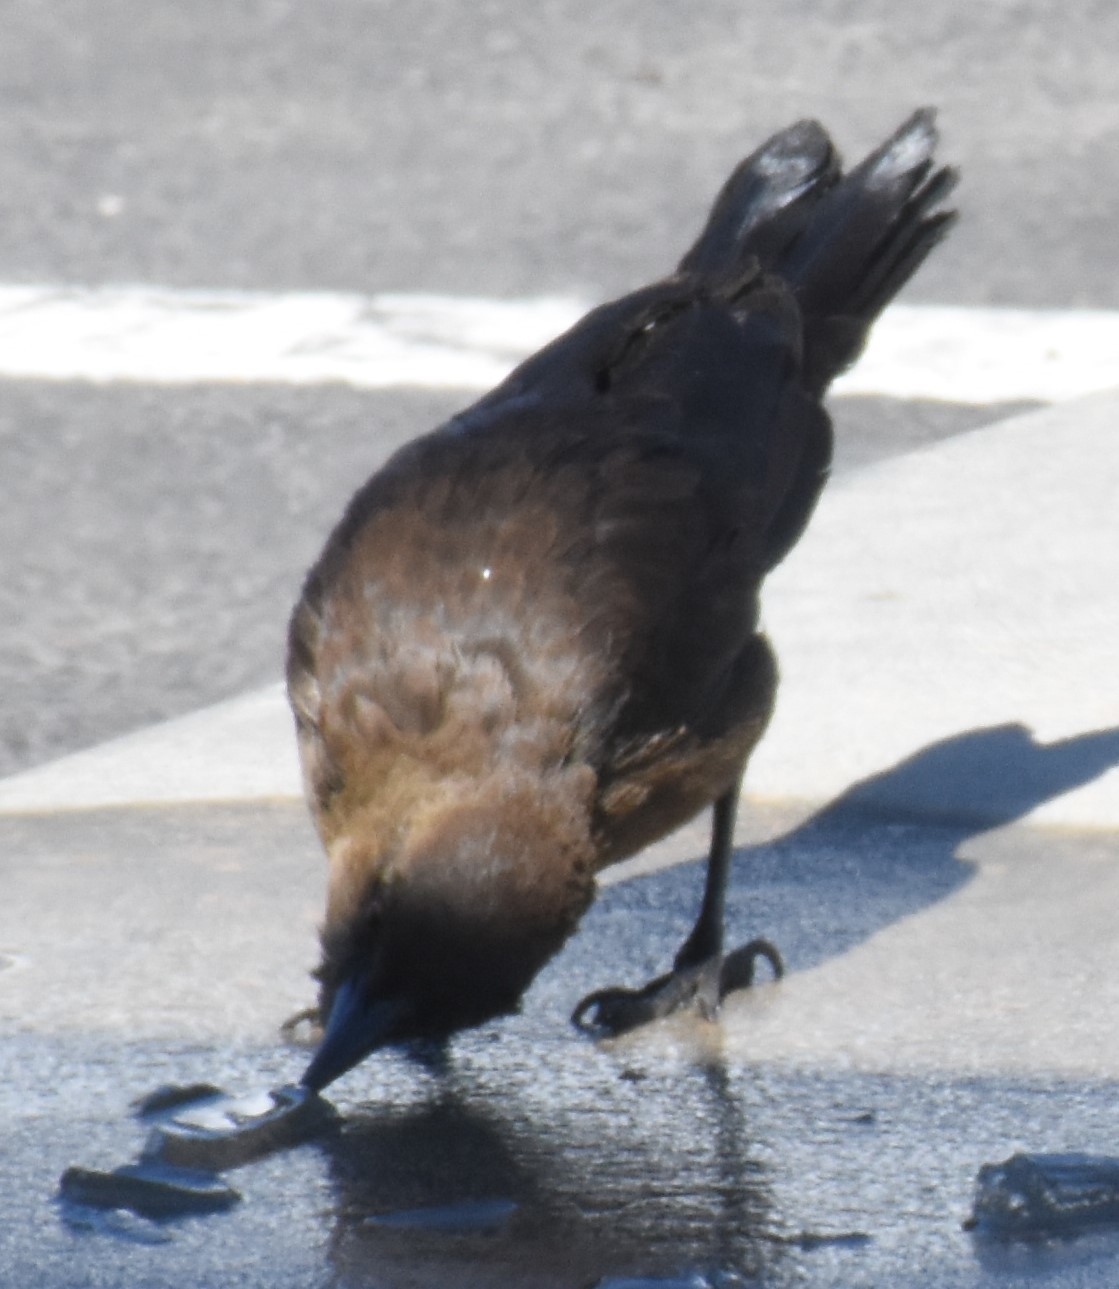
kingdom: Animalia
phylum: Chordata
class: Aves
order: Passeriformes
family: Icteridae
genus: Quiscalus
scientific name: Quiscalus mexicanus
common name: Great-tailed grackle
